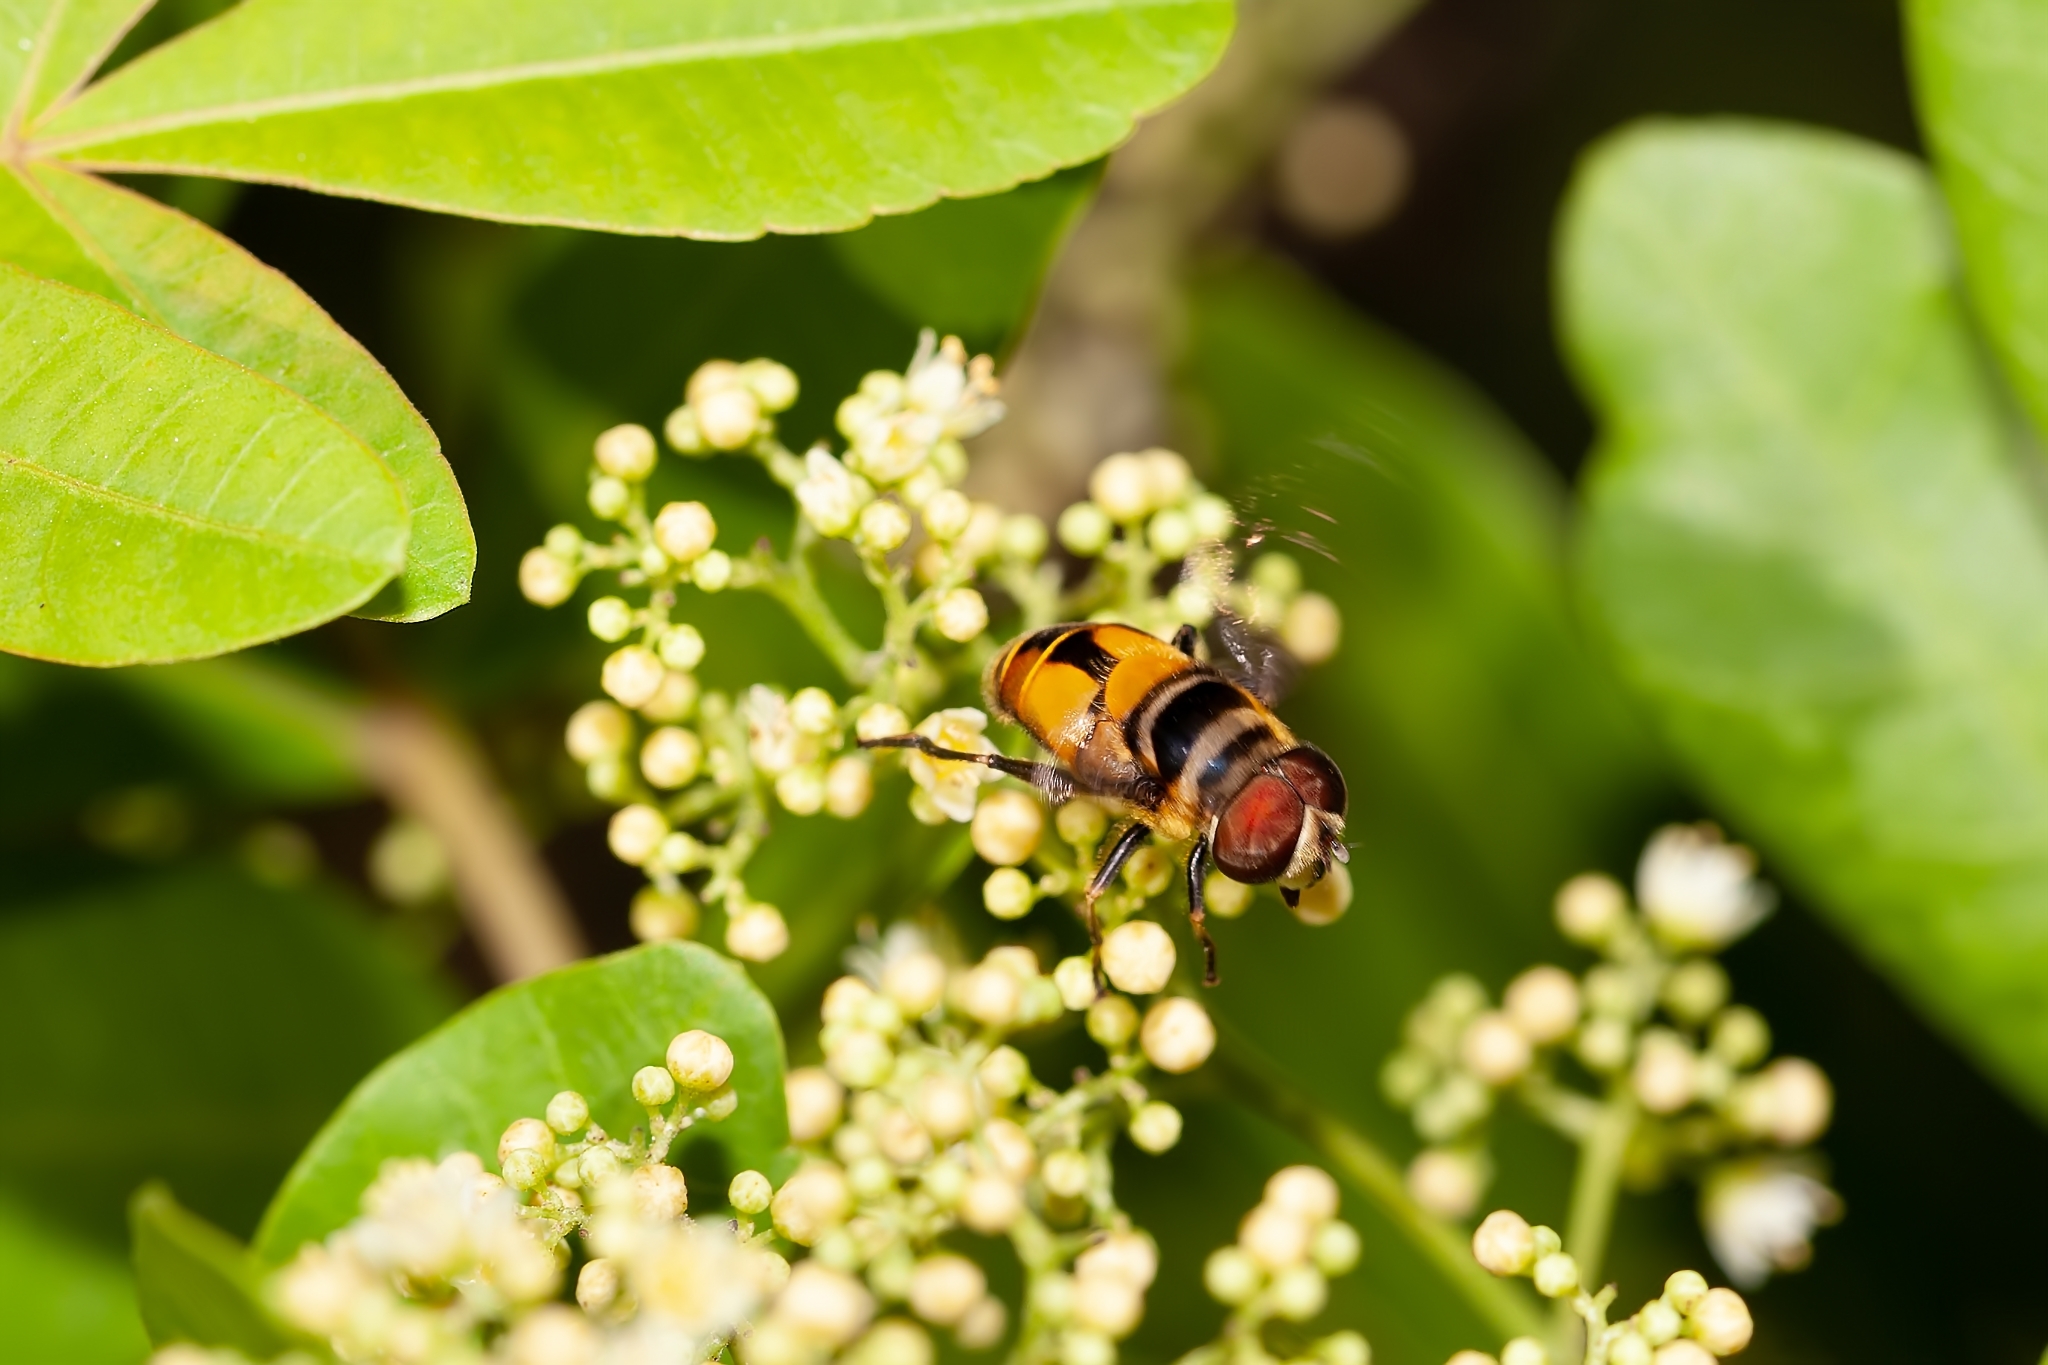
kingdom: Animalia
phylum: Arthropoda
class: Insecta
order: Diptera
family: Syrphidae
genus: Palpada
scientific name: Palpada agrorum
